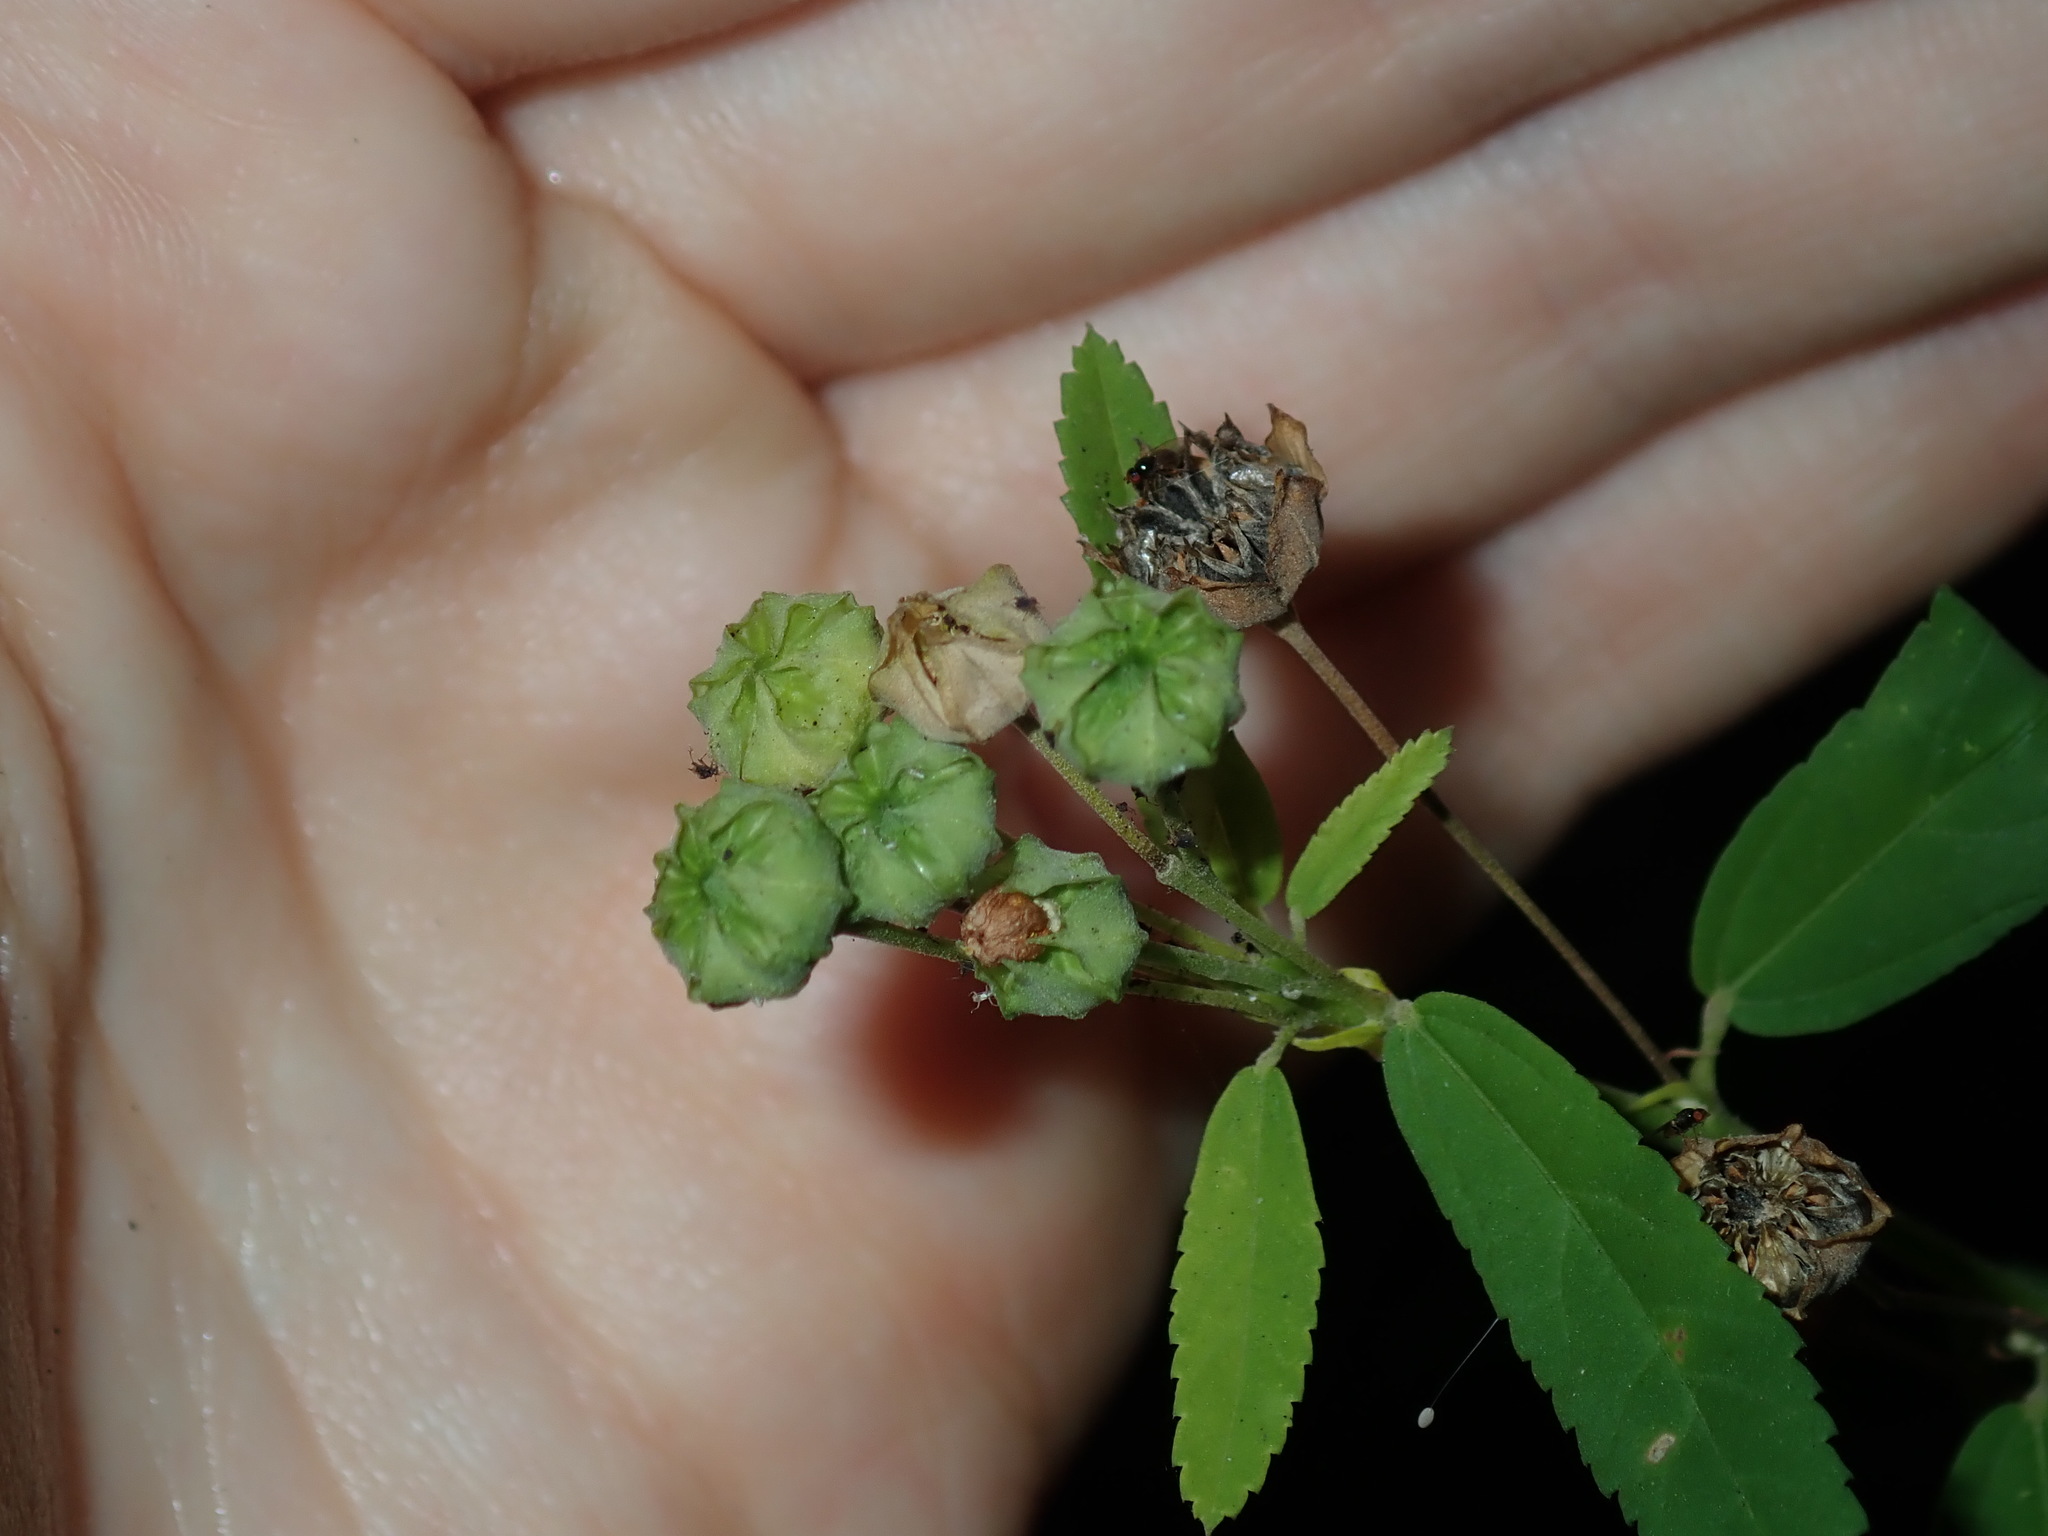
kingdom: Plantae
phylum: Tracheophyta
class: Magnoliopsida
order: Malvales
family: Malvaceae
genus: Sida
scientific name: Sida rhombifolia
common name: Queensland-hemp
